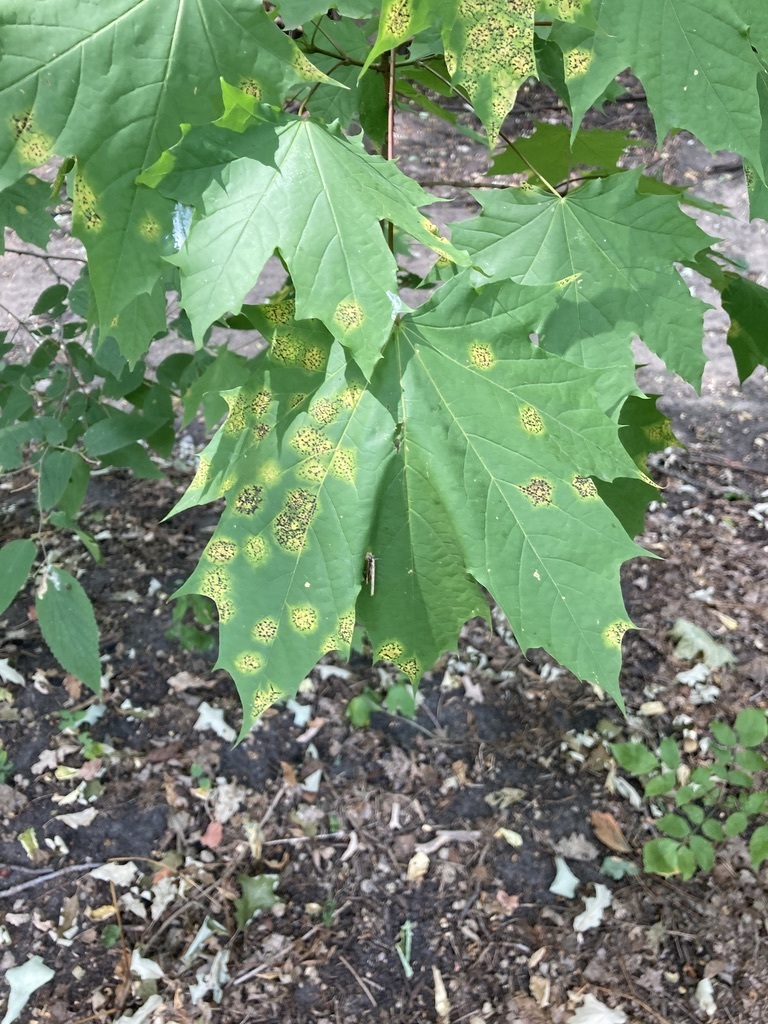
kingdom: Fungi
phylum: Ascomycota
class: Leotiomycetes
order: Rhytismatales
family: Rhytismataceae
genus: Rhytisma
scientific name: Rhytisma acerinum
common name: European tar spot
